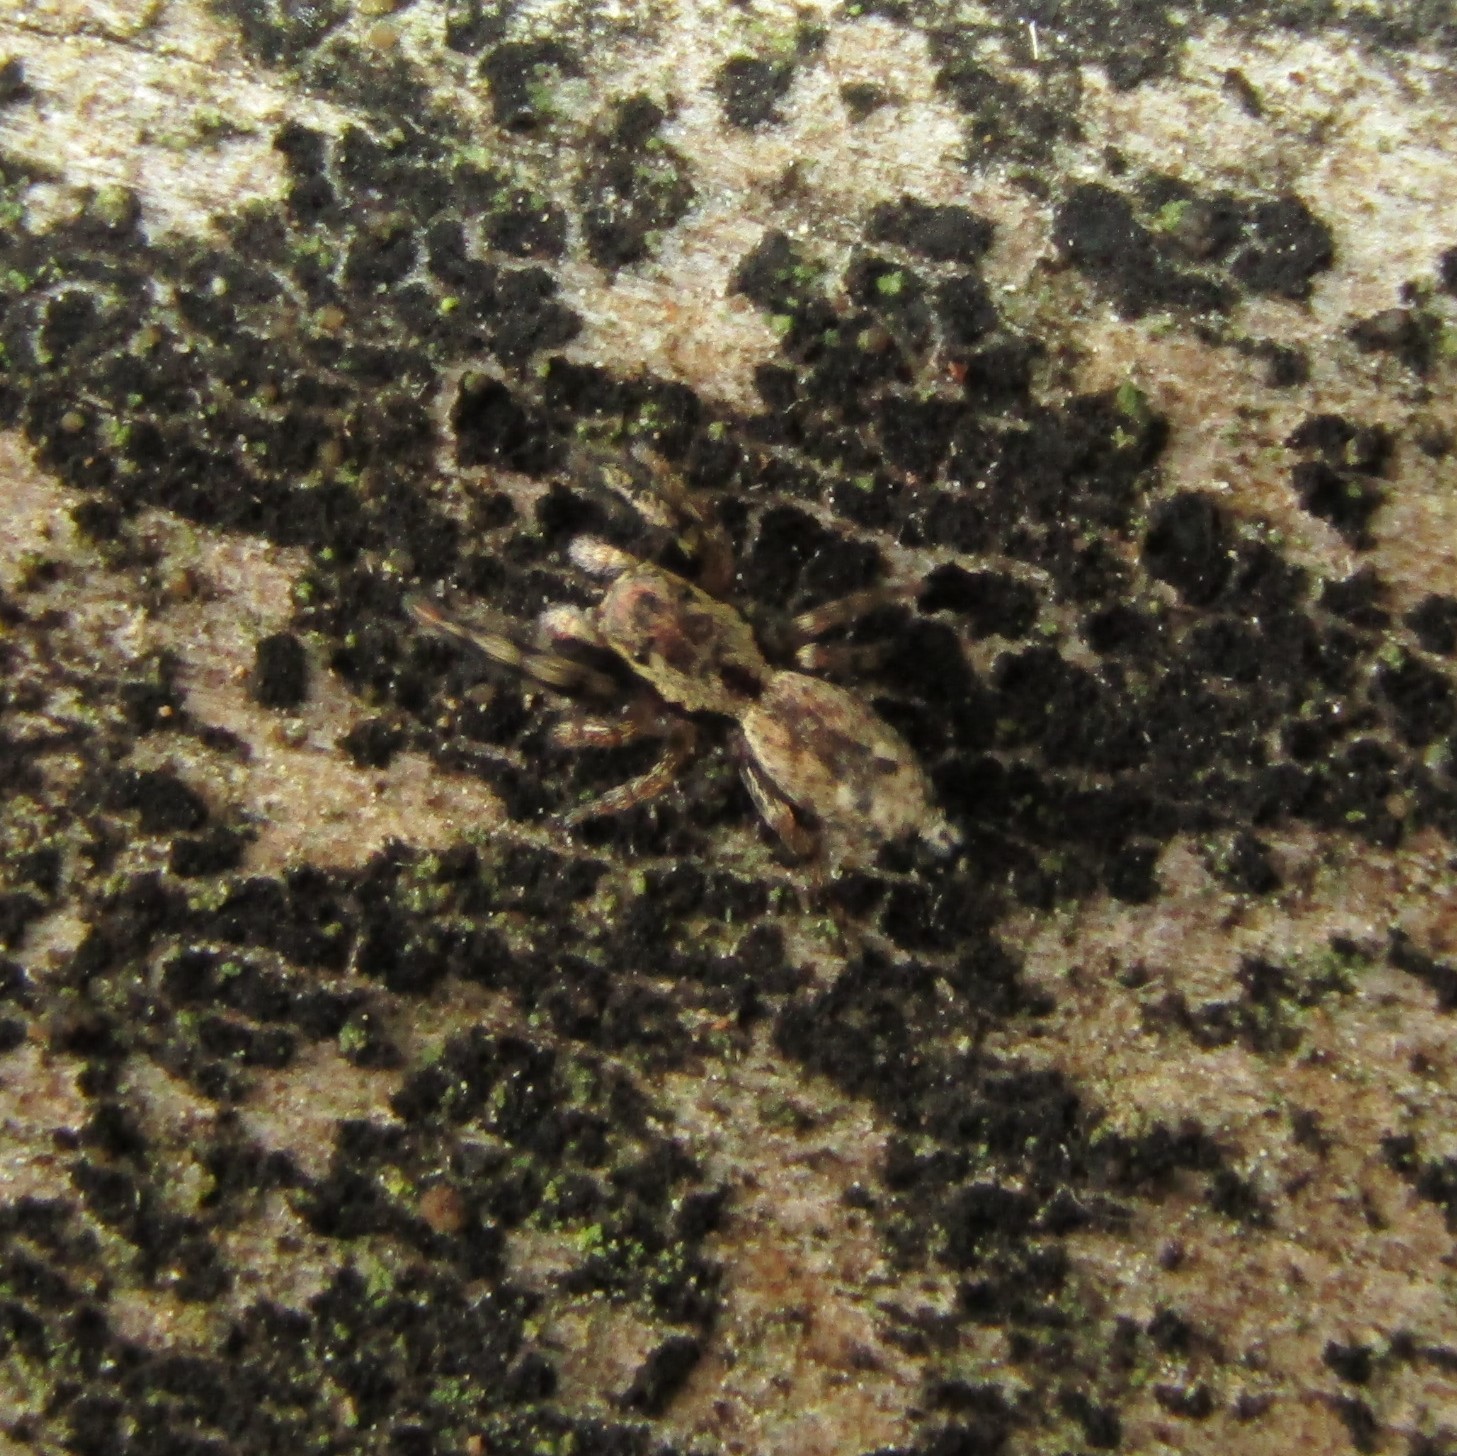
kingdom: Animalia
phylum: Arthropoda
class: Arachnida
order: Araneae
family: Salticidae
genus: Hinewaia
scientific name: Hinewaia embolica
